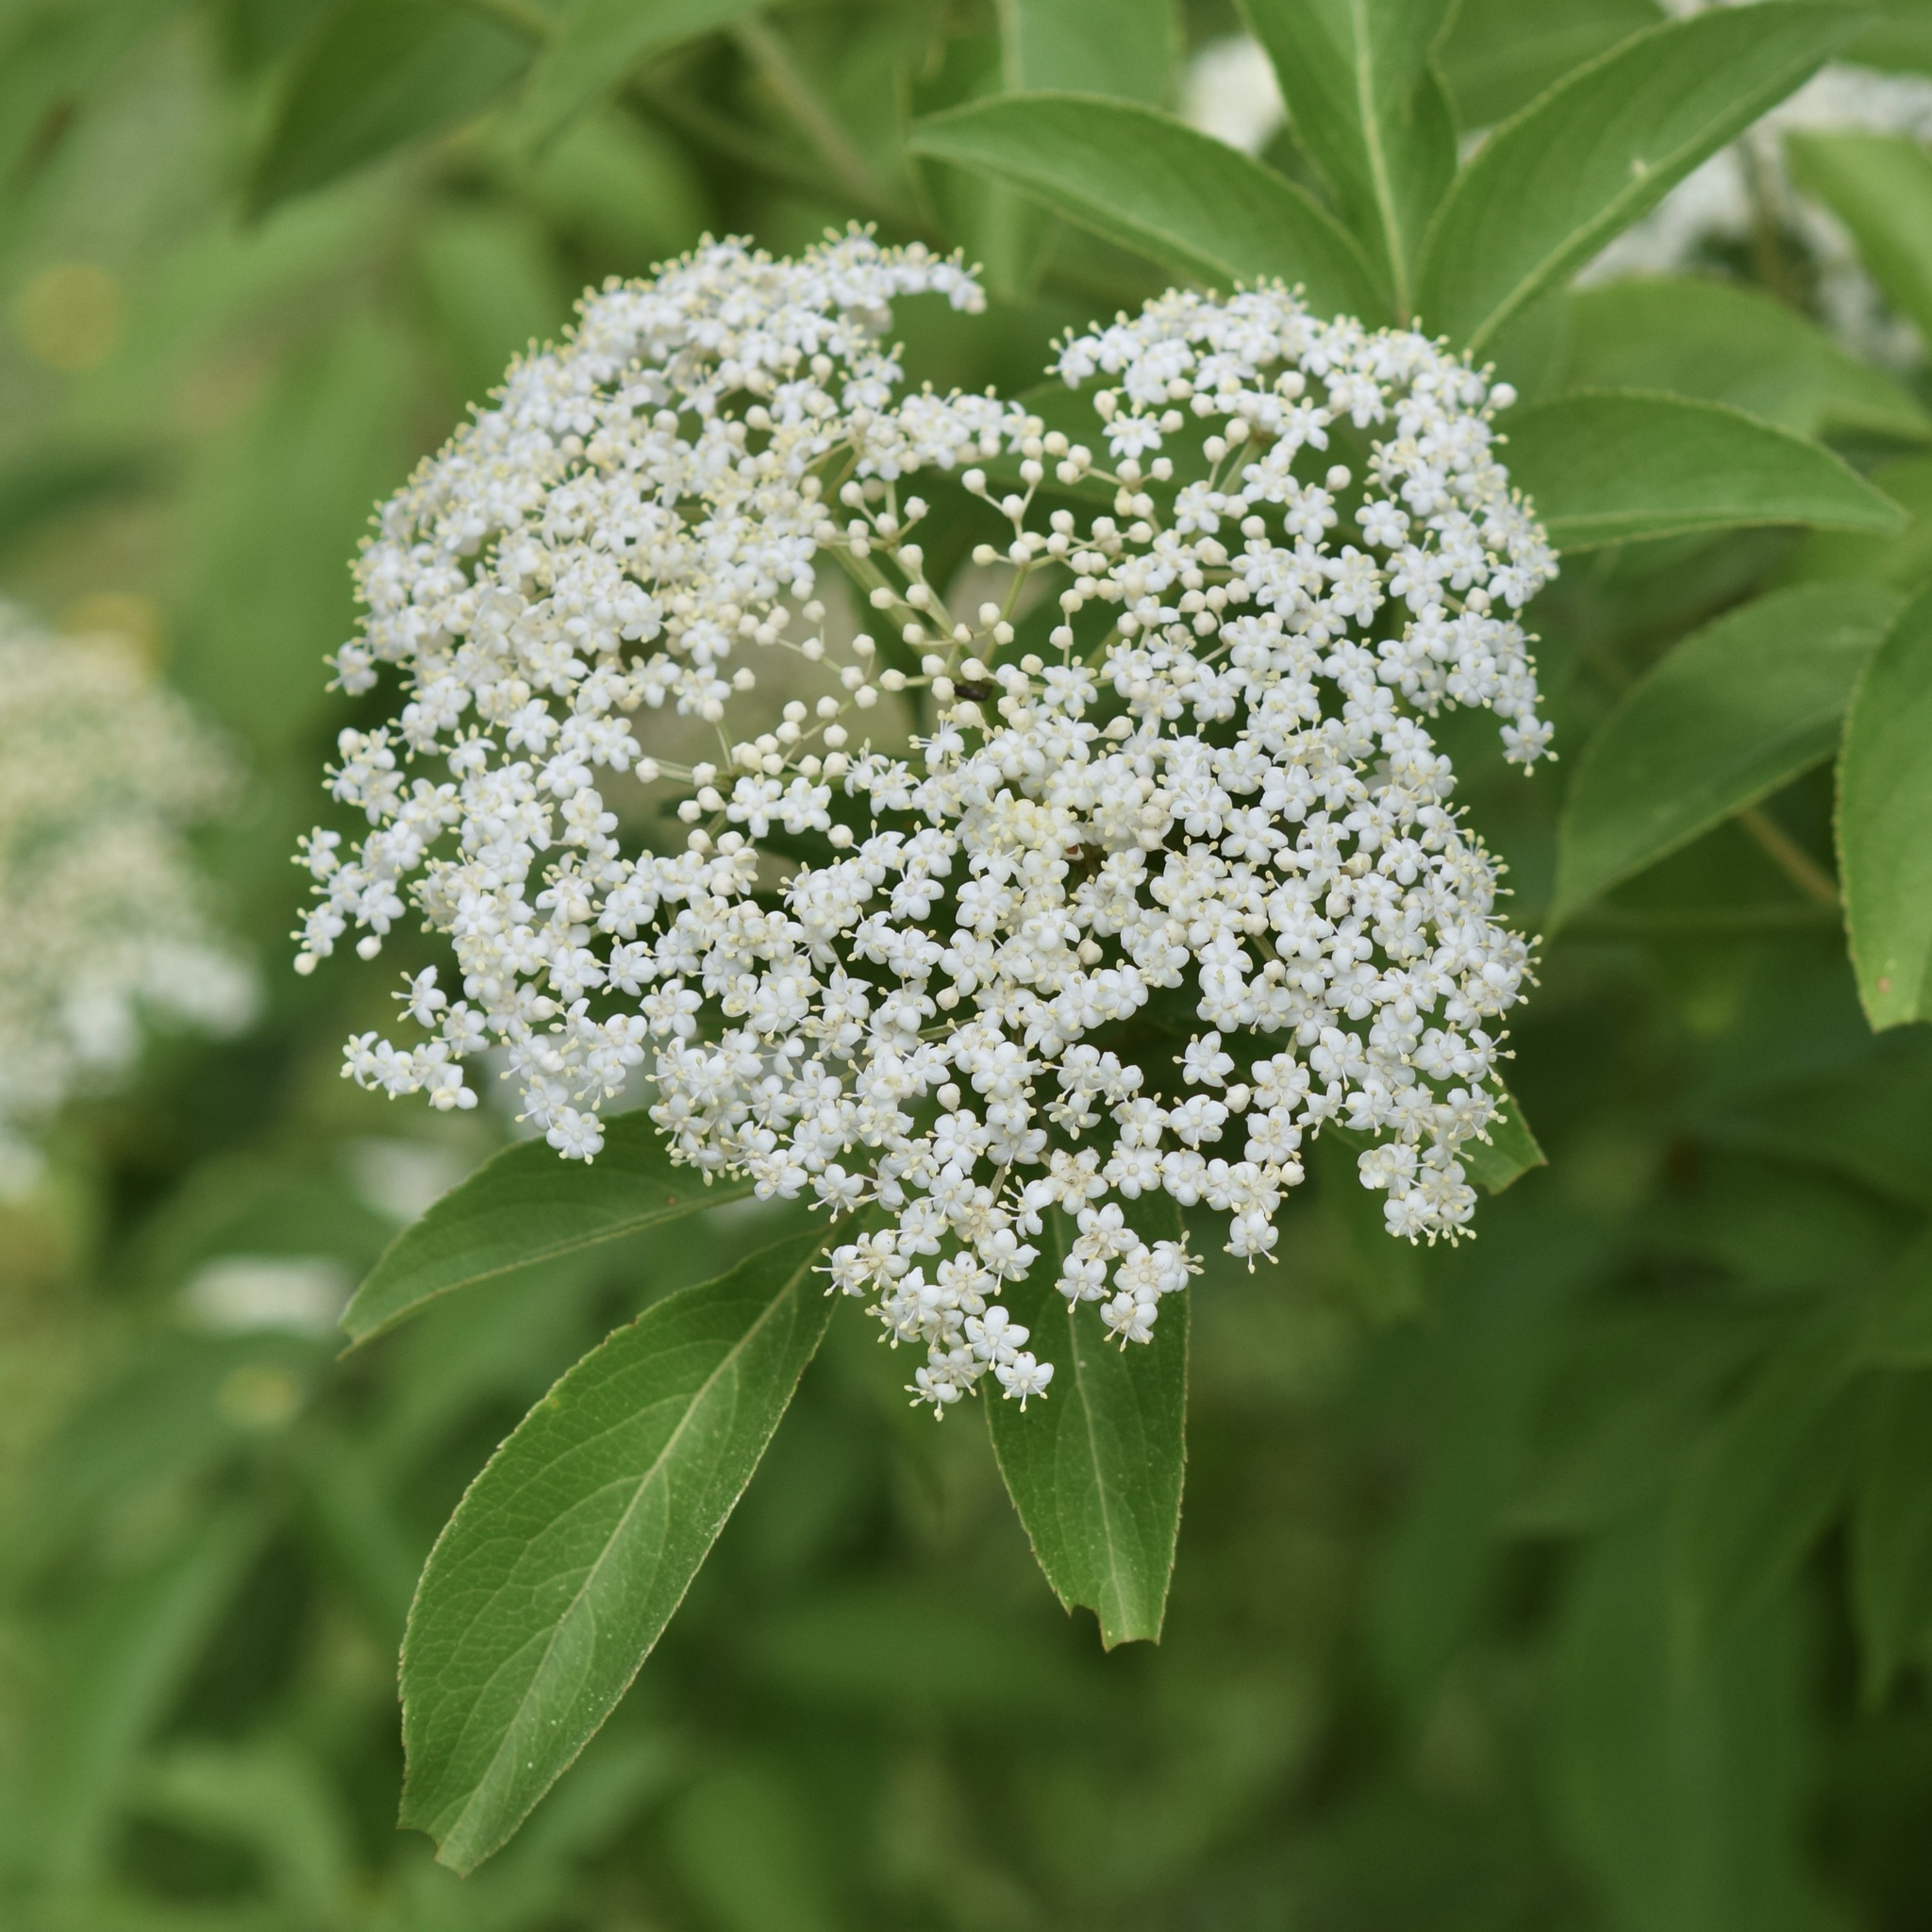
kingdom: Plantae
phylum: Tracheophyta
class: Magnoliopsida
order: Dipsacales
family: Viburnaceae
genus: Sambucus
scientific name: Sambucus canadensis
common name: American elder
